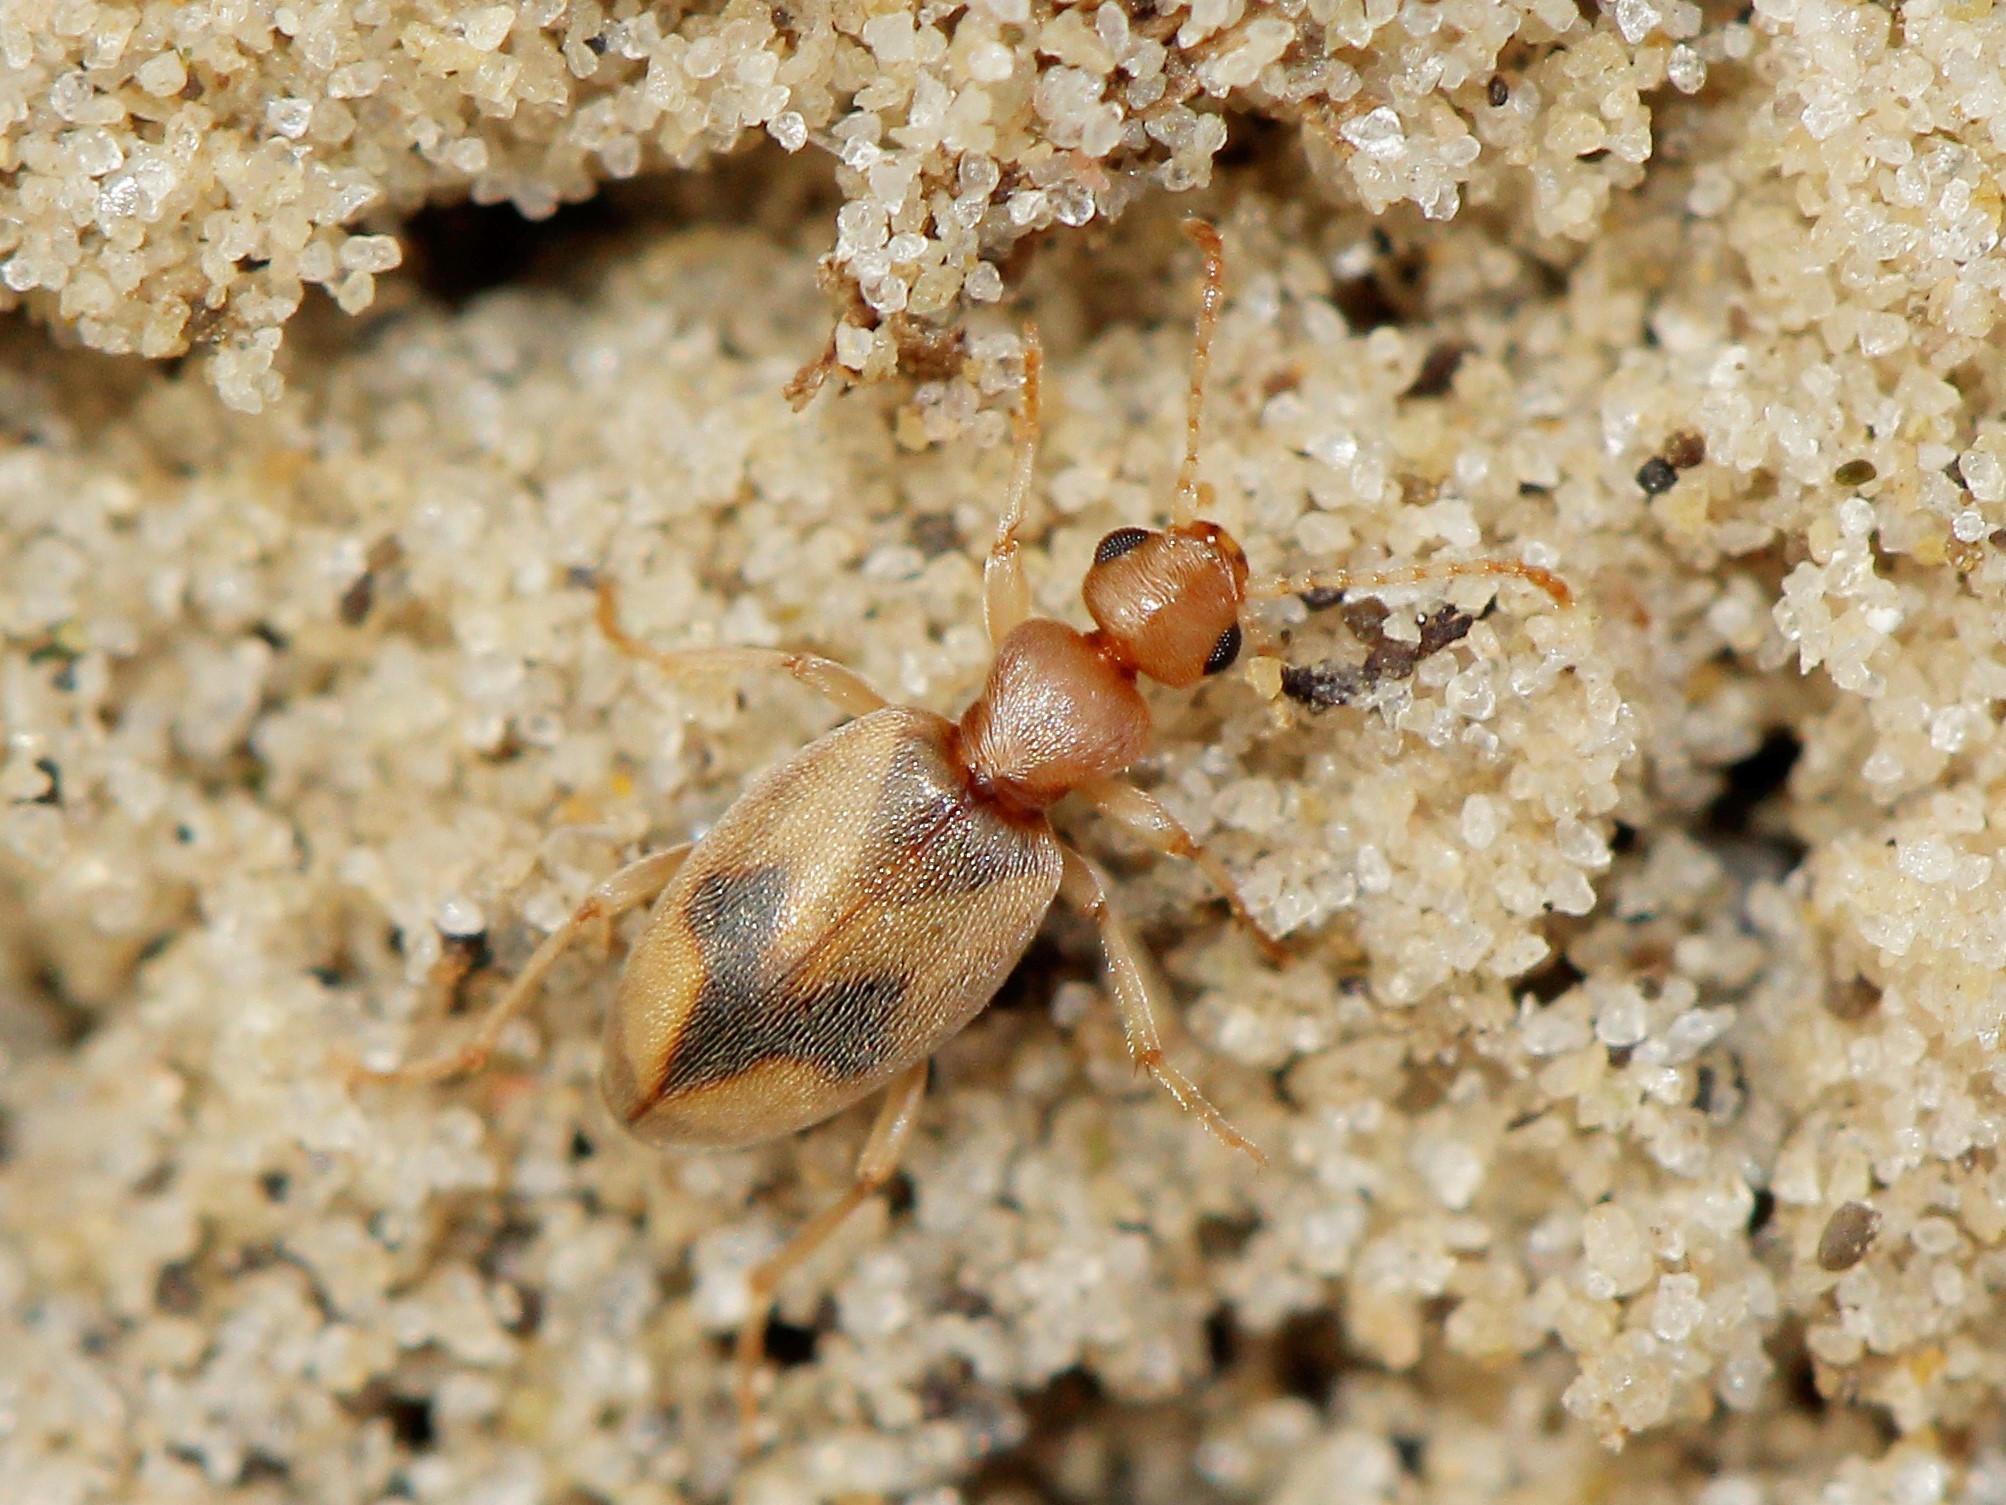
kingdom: Animalia
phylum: Arthropoda
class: Insecta
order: Coleoptera
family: Anthicidae
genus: Anthicus
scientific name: Anthicus bimaculatus
